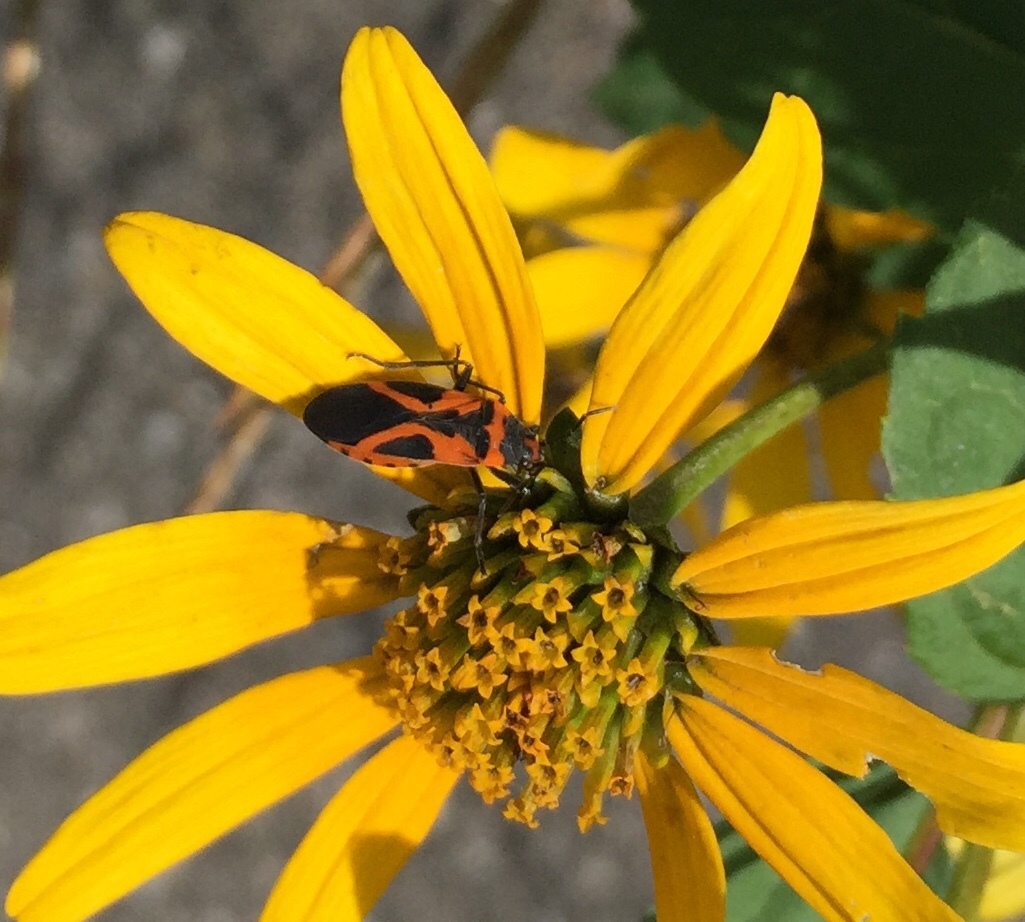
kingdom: Animalia
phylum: Arthropoda
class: Insecta
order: Hemiptera
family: Lygaeidae
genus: Lygaeus
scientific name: Lygaeus turcicus
